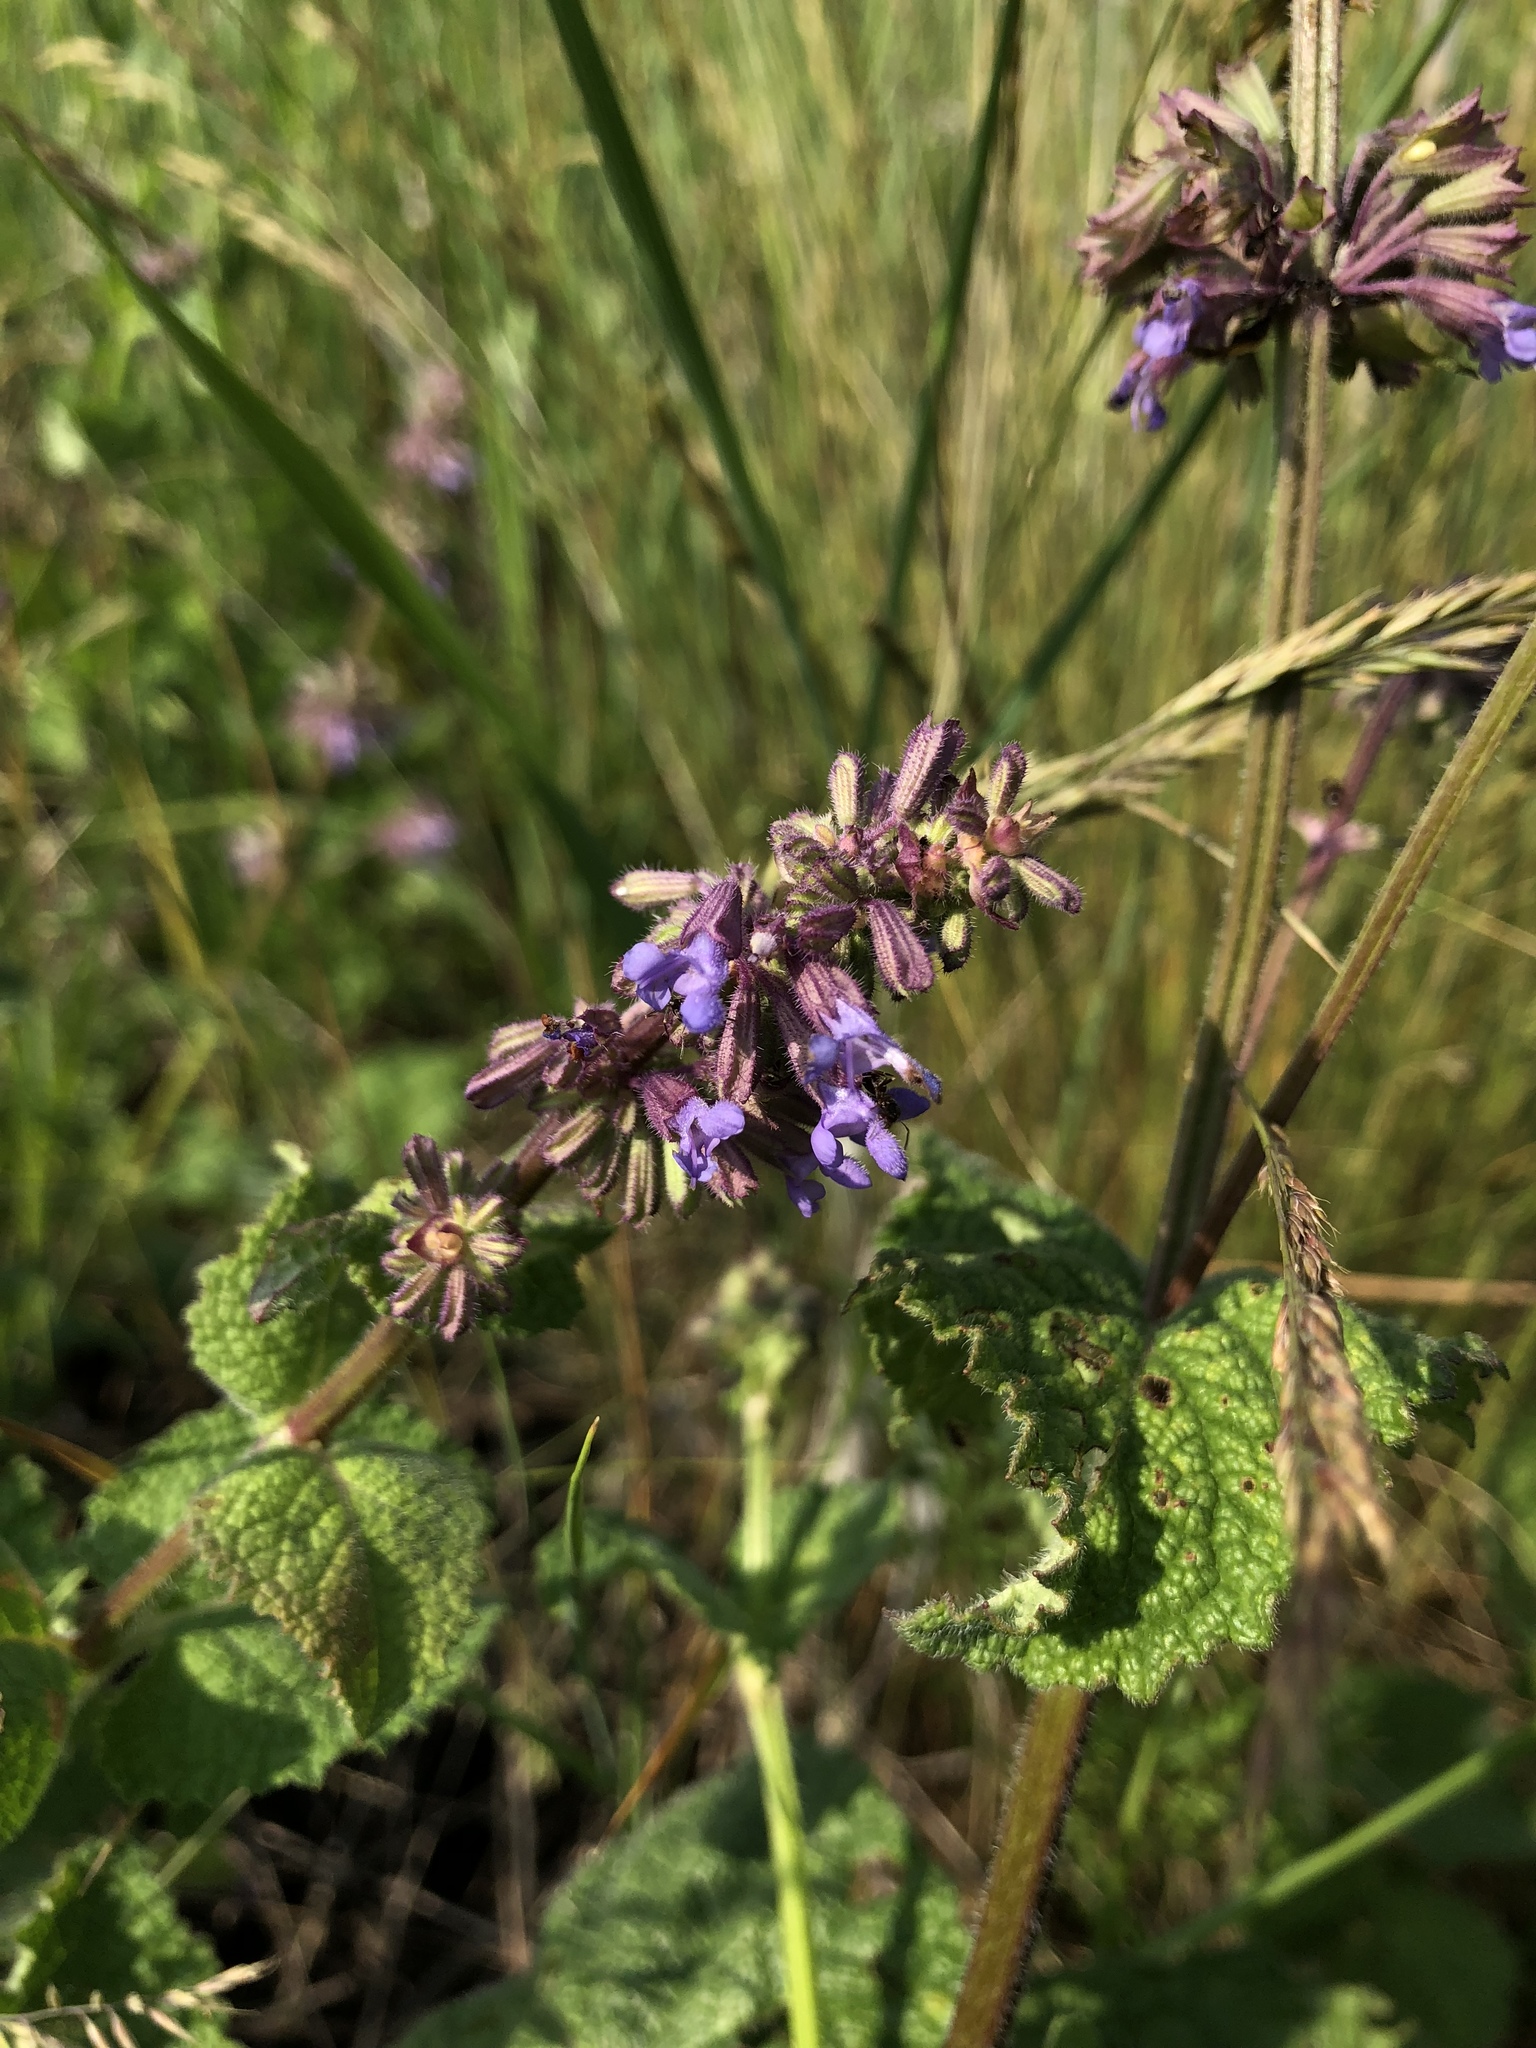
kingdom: Plantae
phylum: Tracheophyta
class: Magnoliopsida
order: Lamiales
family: Lamiaceae
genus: Salvia
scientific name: Salvia verticillata
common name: Whorled clary
